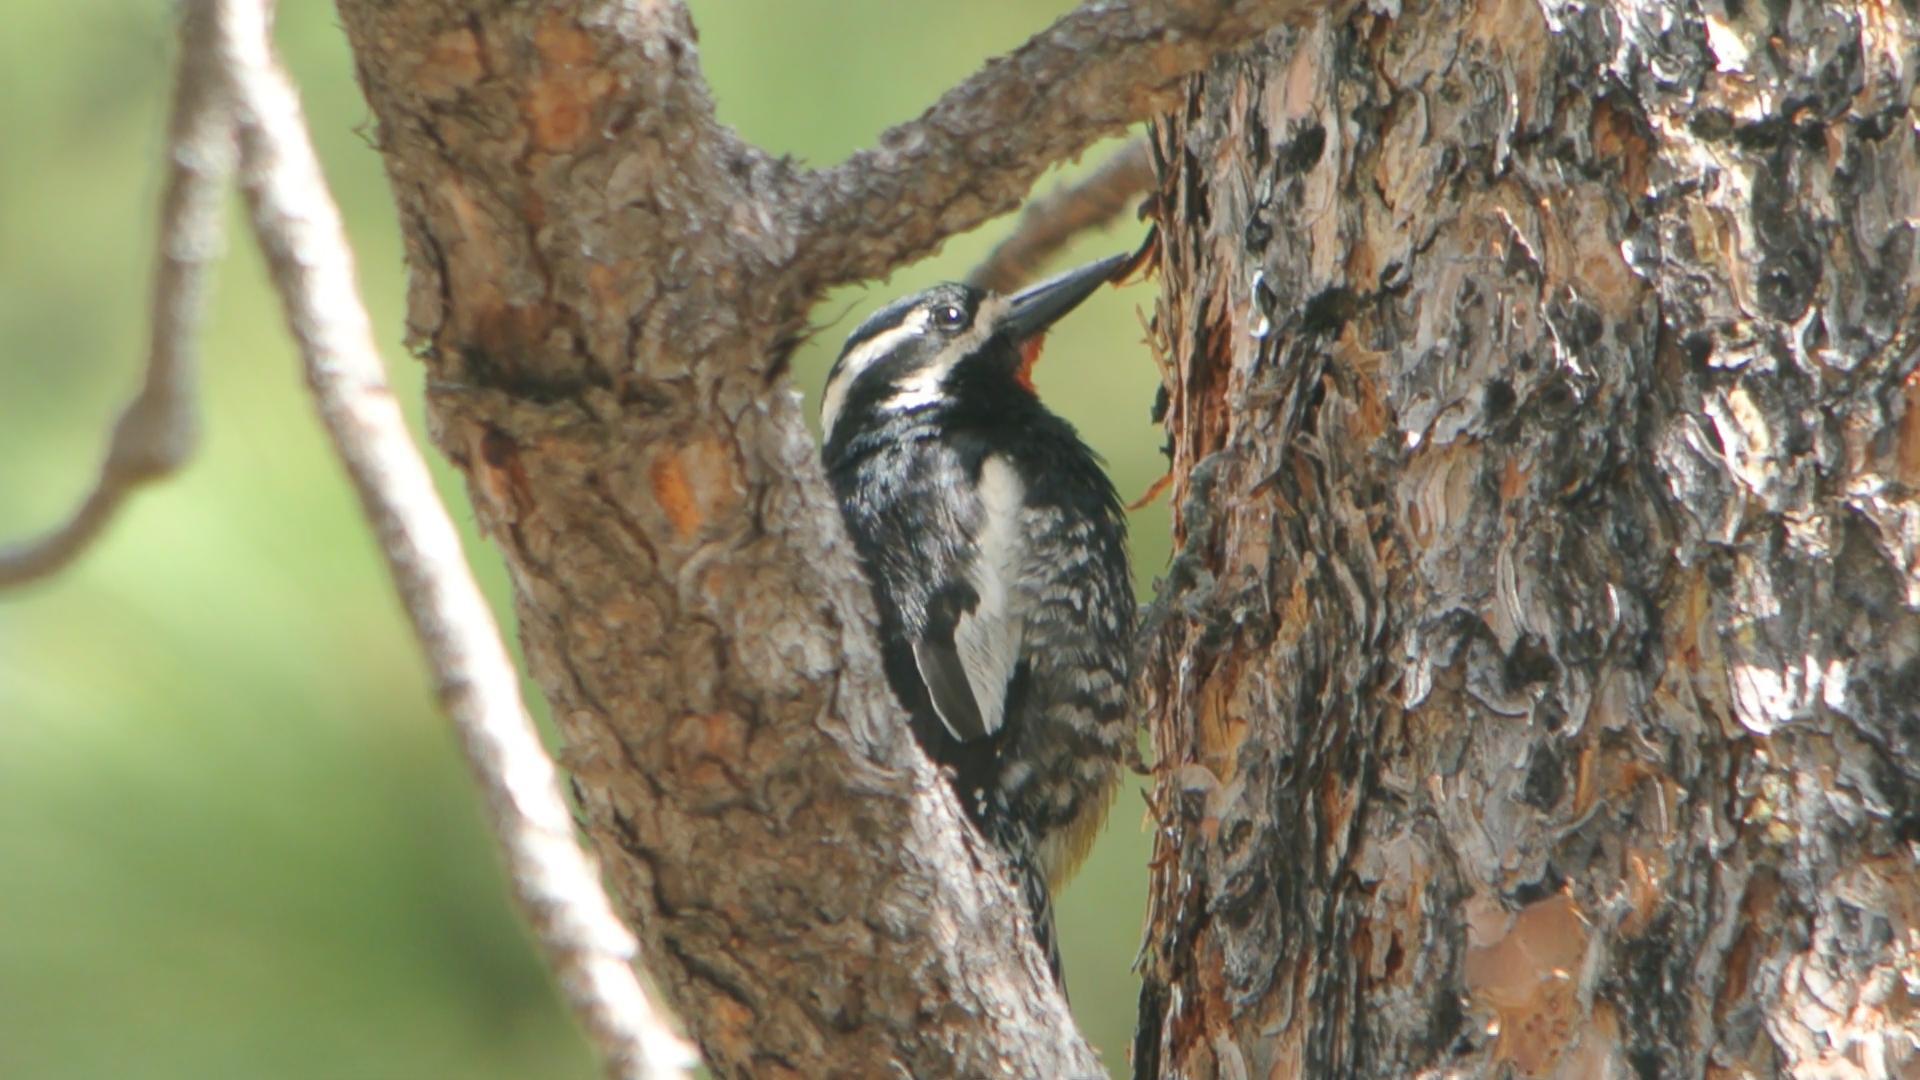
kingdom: Animalia
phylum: Chordata
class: Aves
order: Piciformes
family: Picidae
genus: Sphyrapicus
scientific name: Sphyrapicus thyroideus
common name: Williamson's sapsucker
